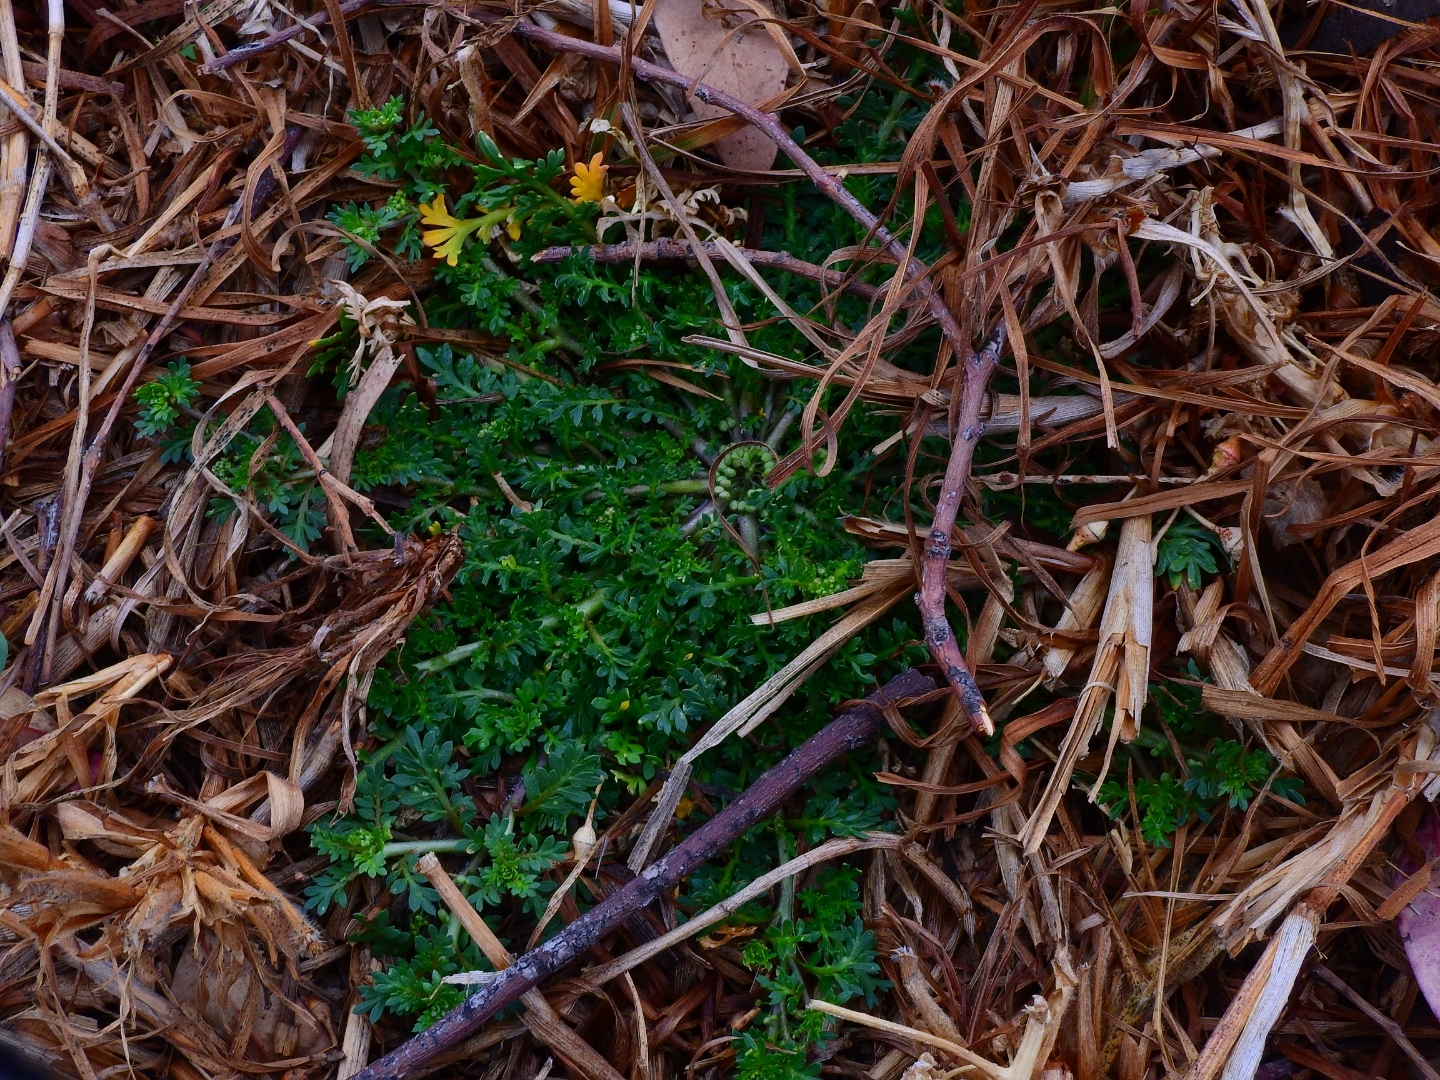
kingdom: Plantae
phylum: Tracheophyta
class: Magnoliopsida
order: Brassicales
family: Brassicaceae
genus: Lepidium
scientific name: Lepidium didymum
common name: Lesser swinecress
